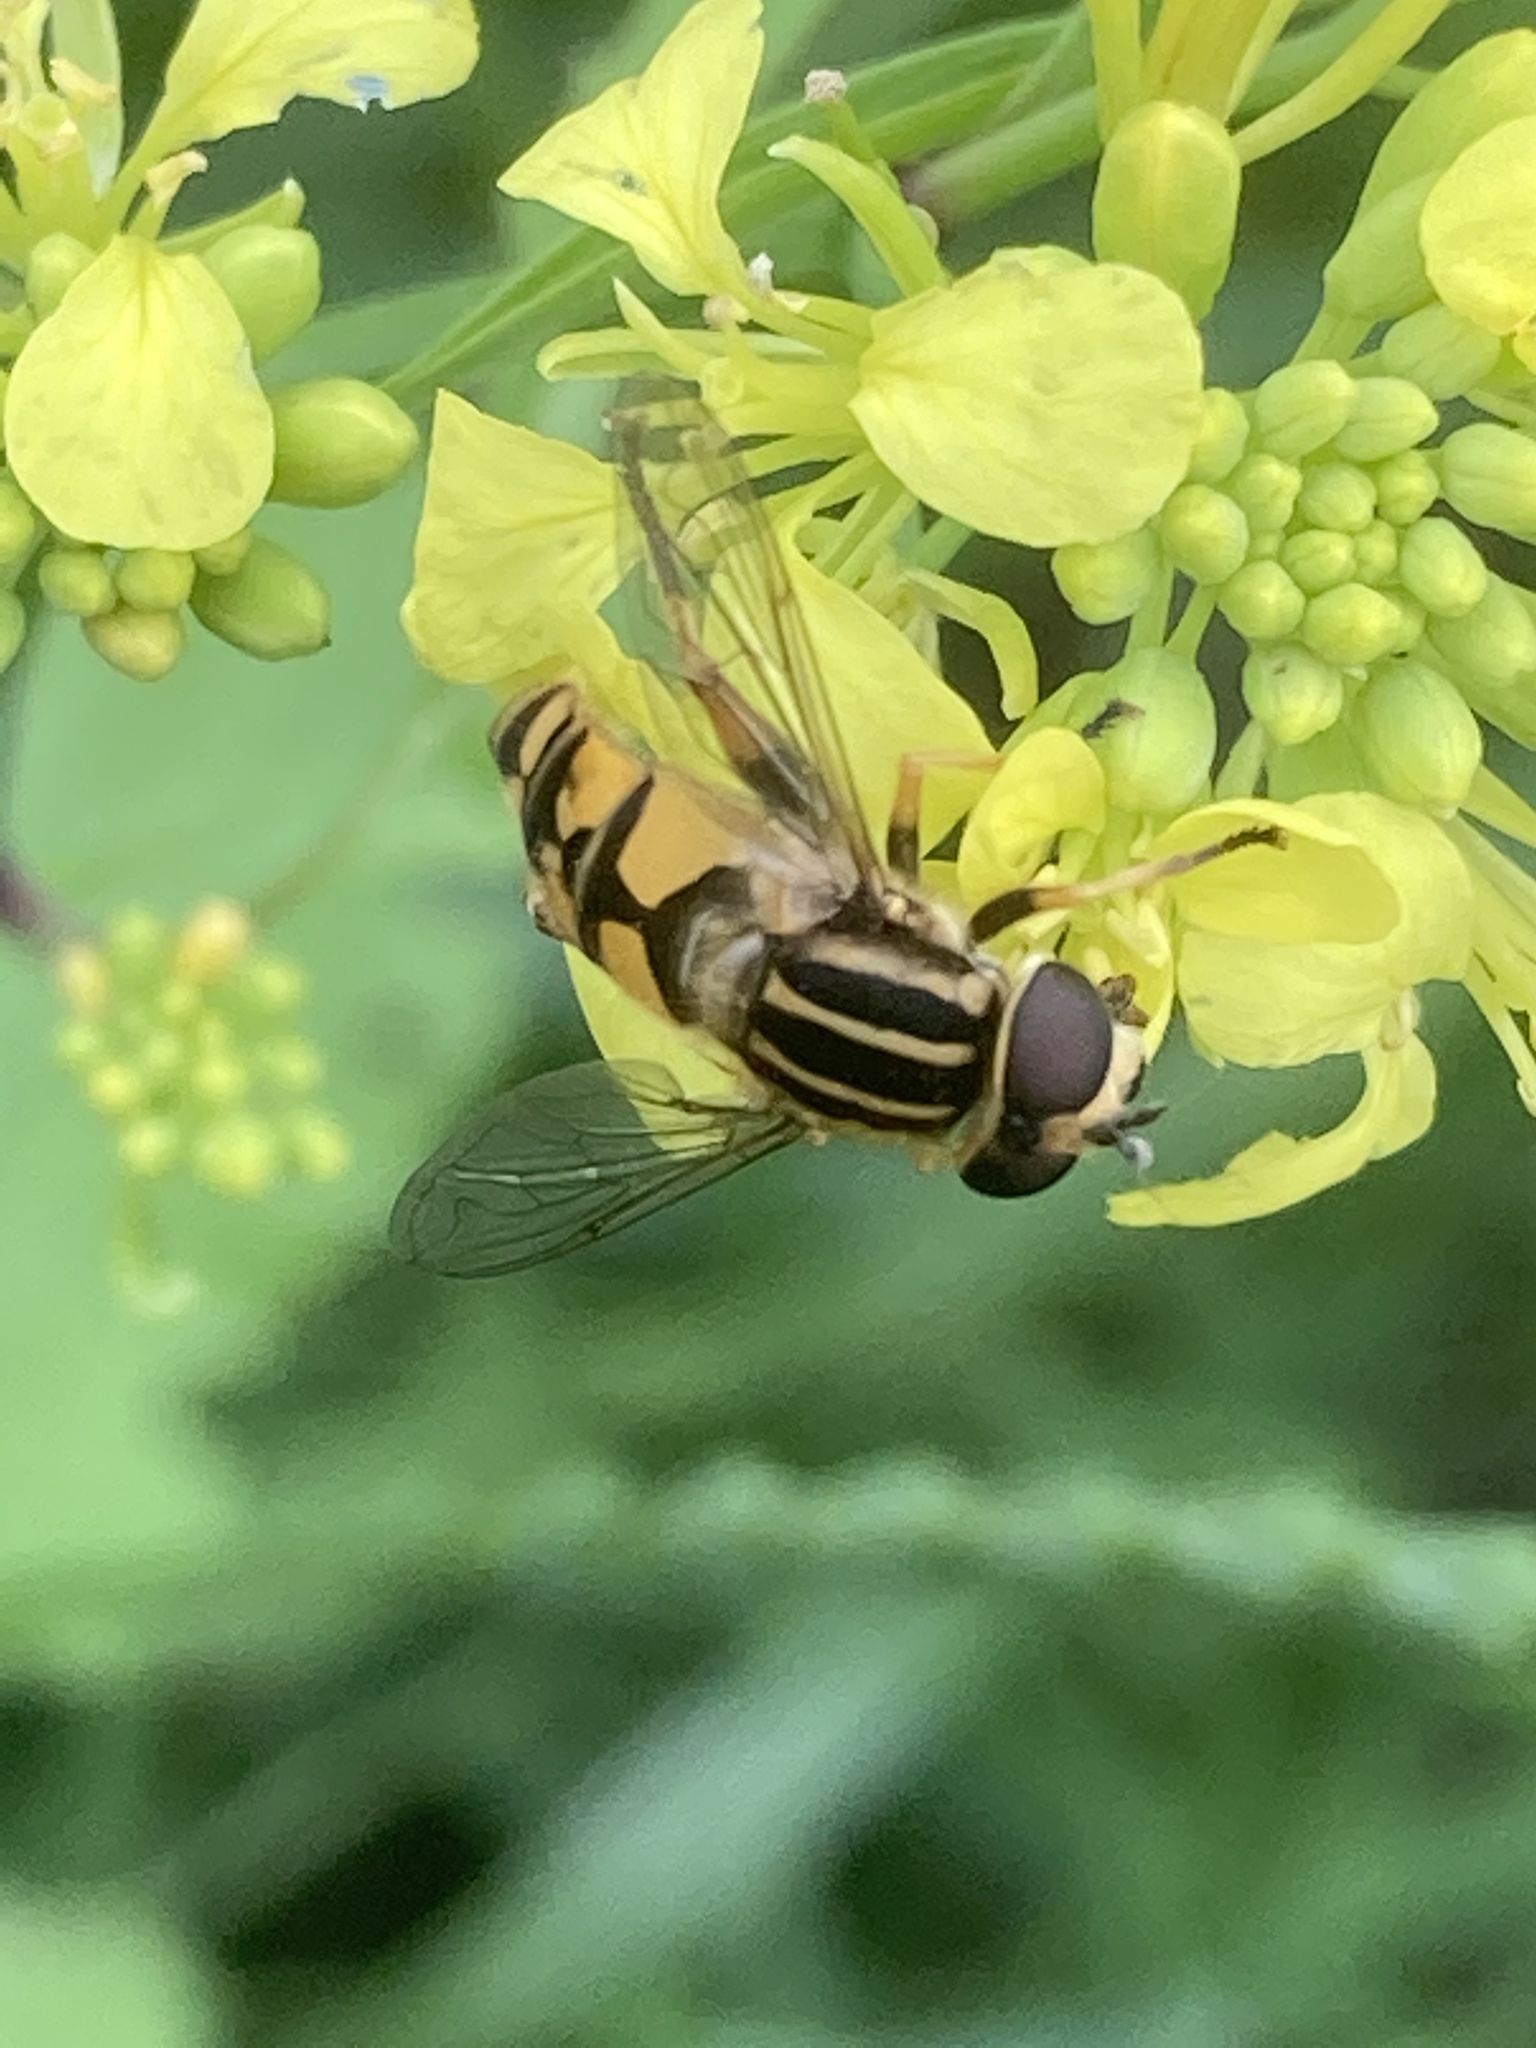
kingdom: Animalia
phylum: Arthropoda
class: Insecta
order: Diptera
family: Syrphidae
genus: Helophilus
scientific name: Helophilus pendulus
